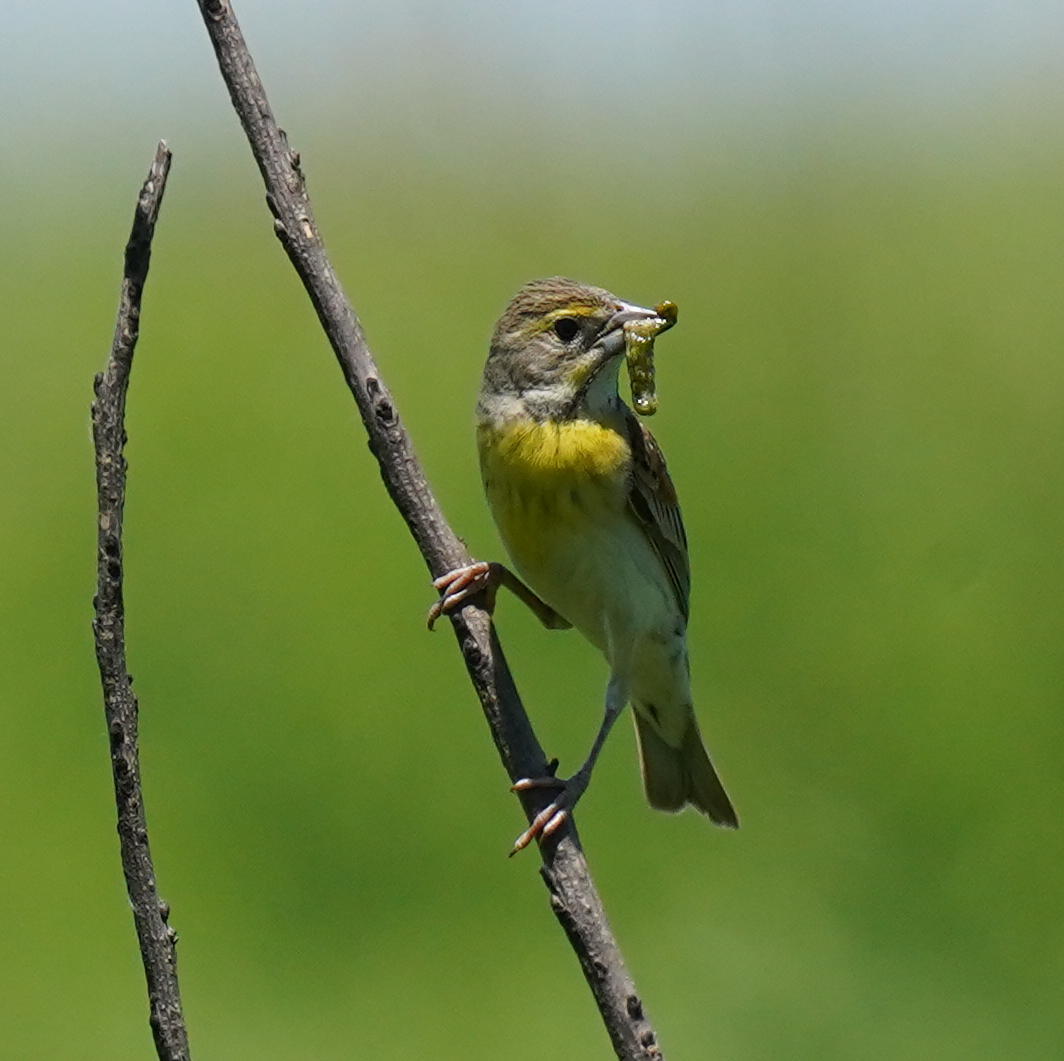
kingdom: Animalia
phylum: Chordata
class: Aves
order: Passeriformes
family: Cardinalidae
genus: Spiza
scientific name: Spiza americana
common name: Dickcissel
